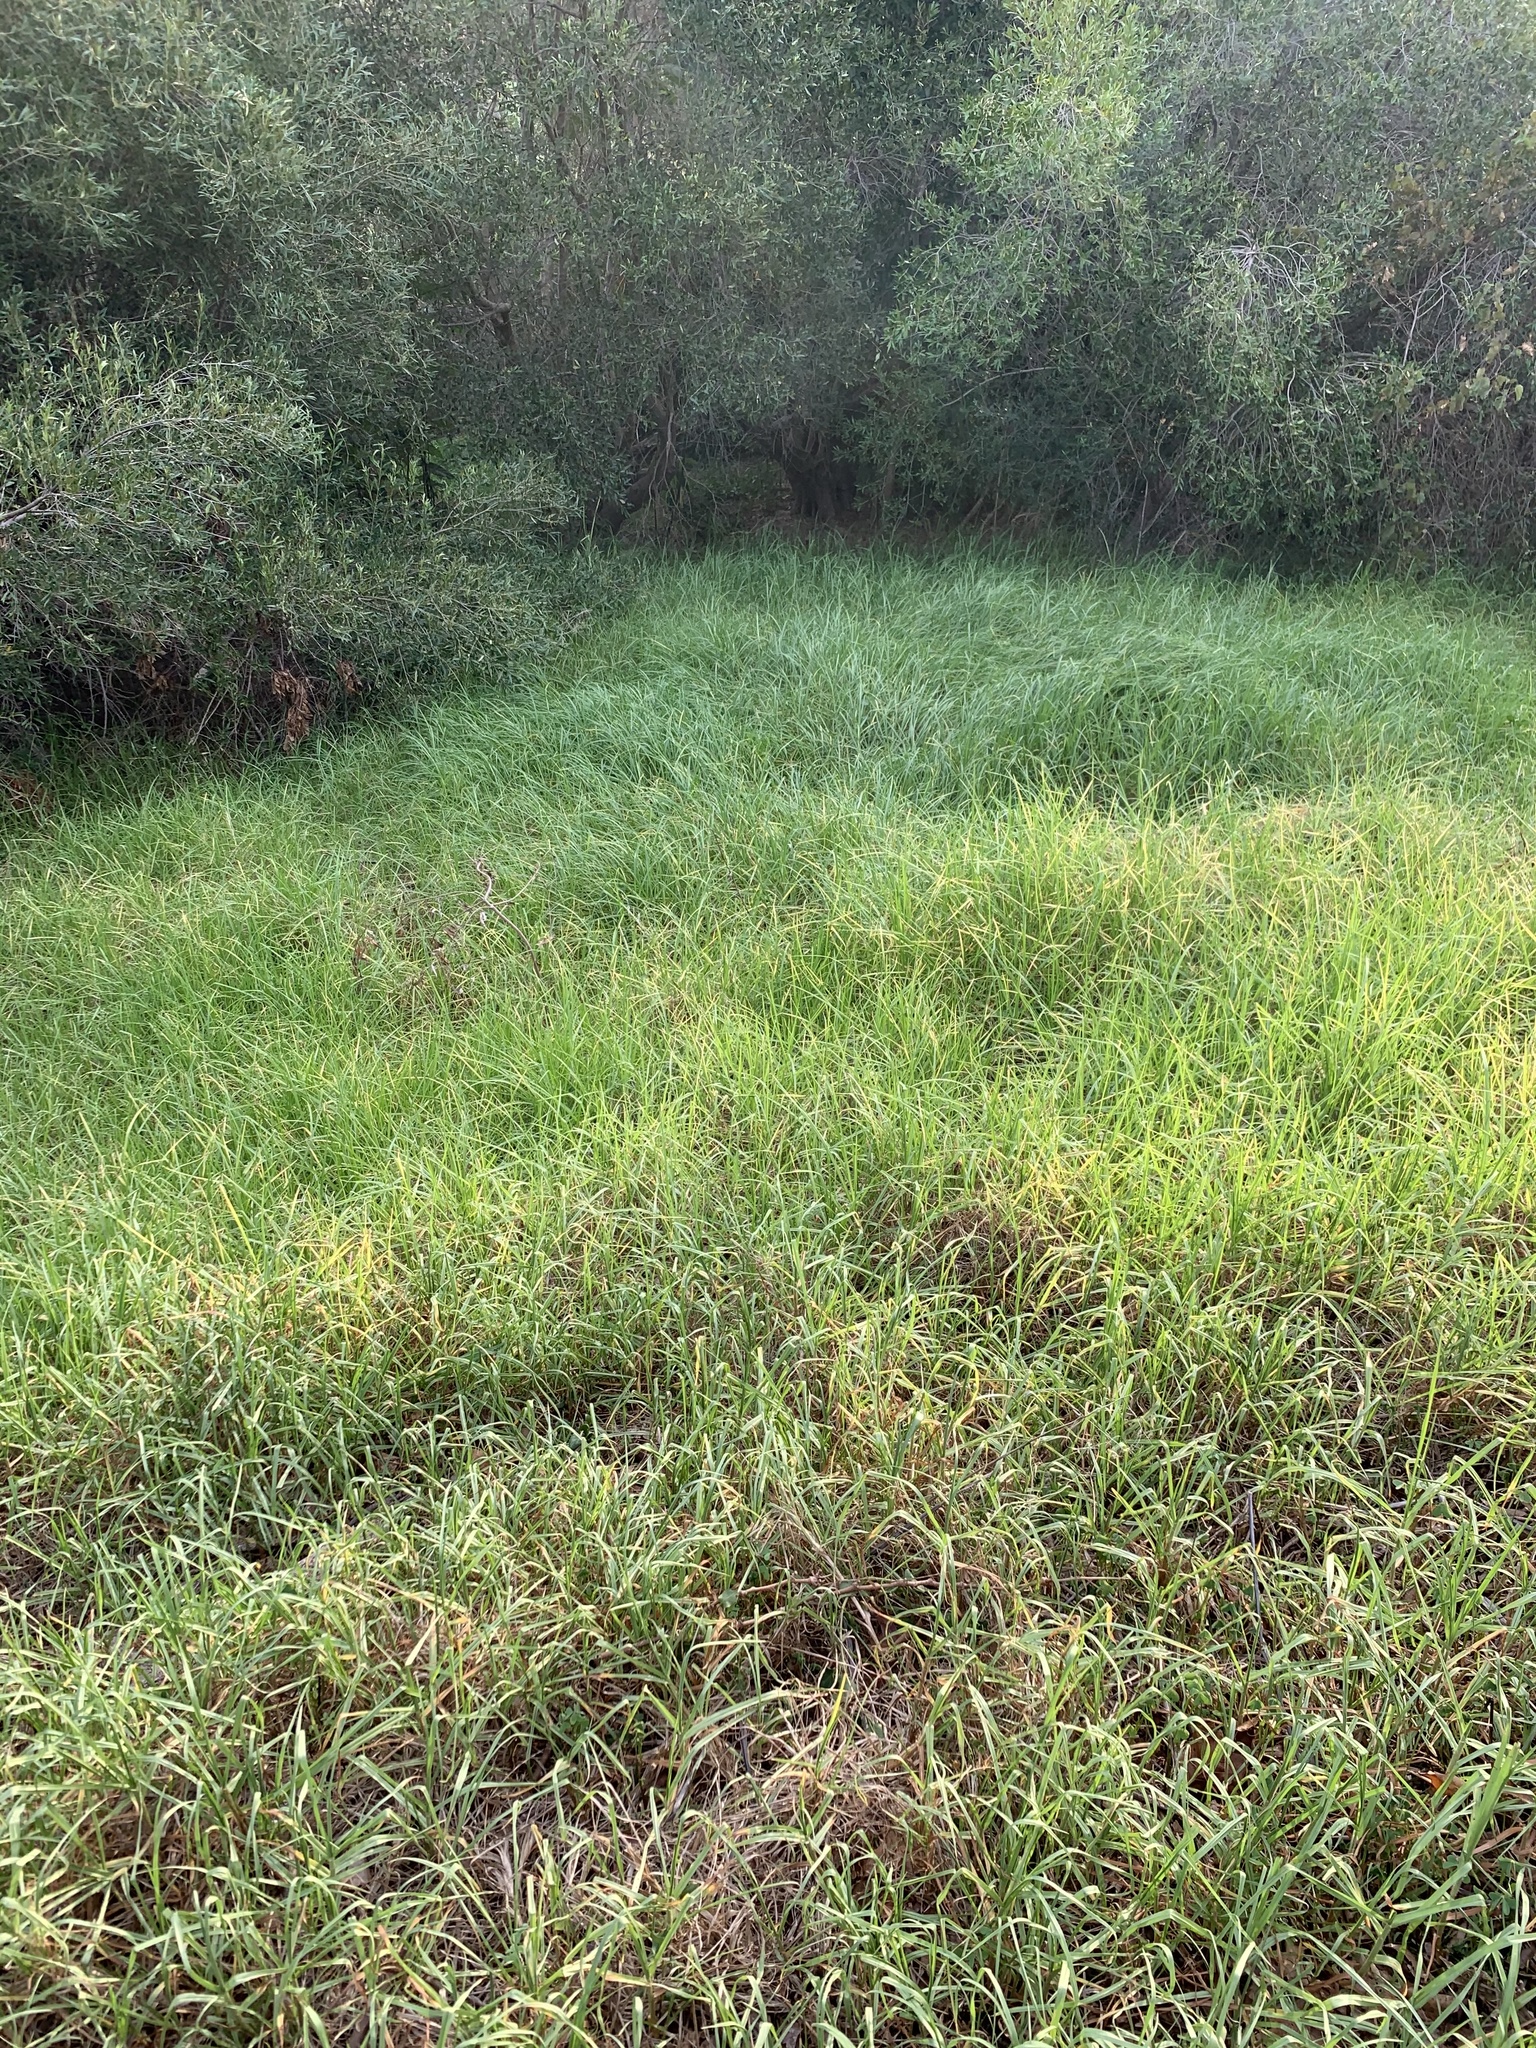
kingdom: Plantae
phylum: Tracheophyta
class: Liliopsida
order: Poales
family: Poaceae
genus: Cenchrus
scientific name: Cenchrus clandestinus
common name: Kikuyugrass
